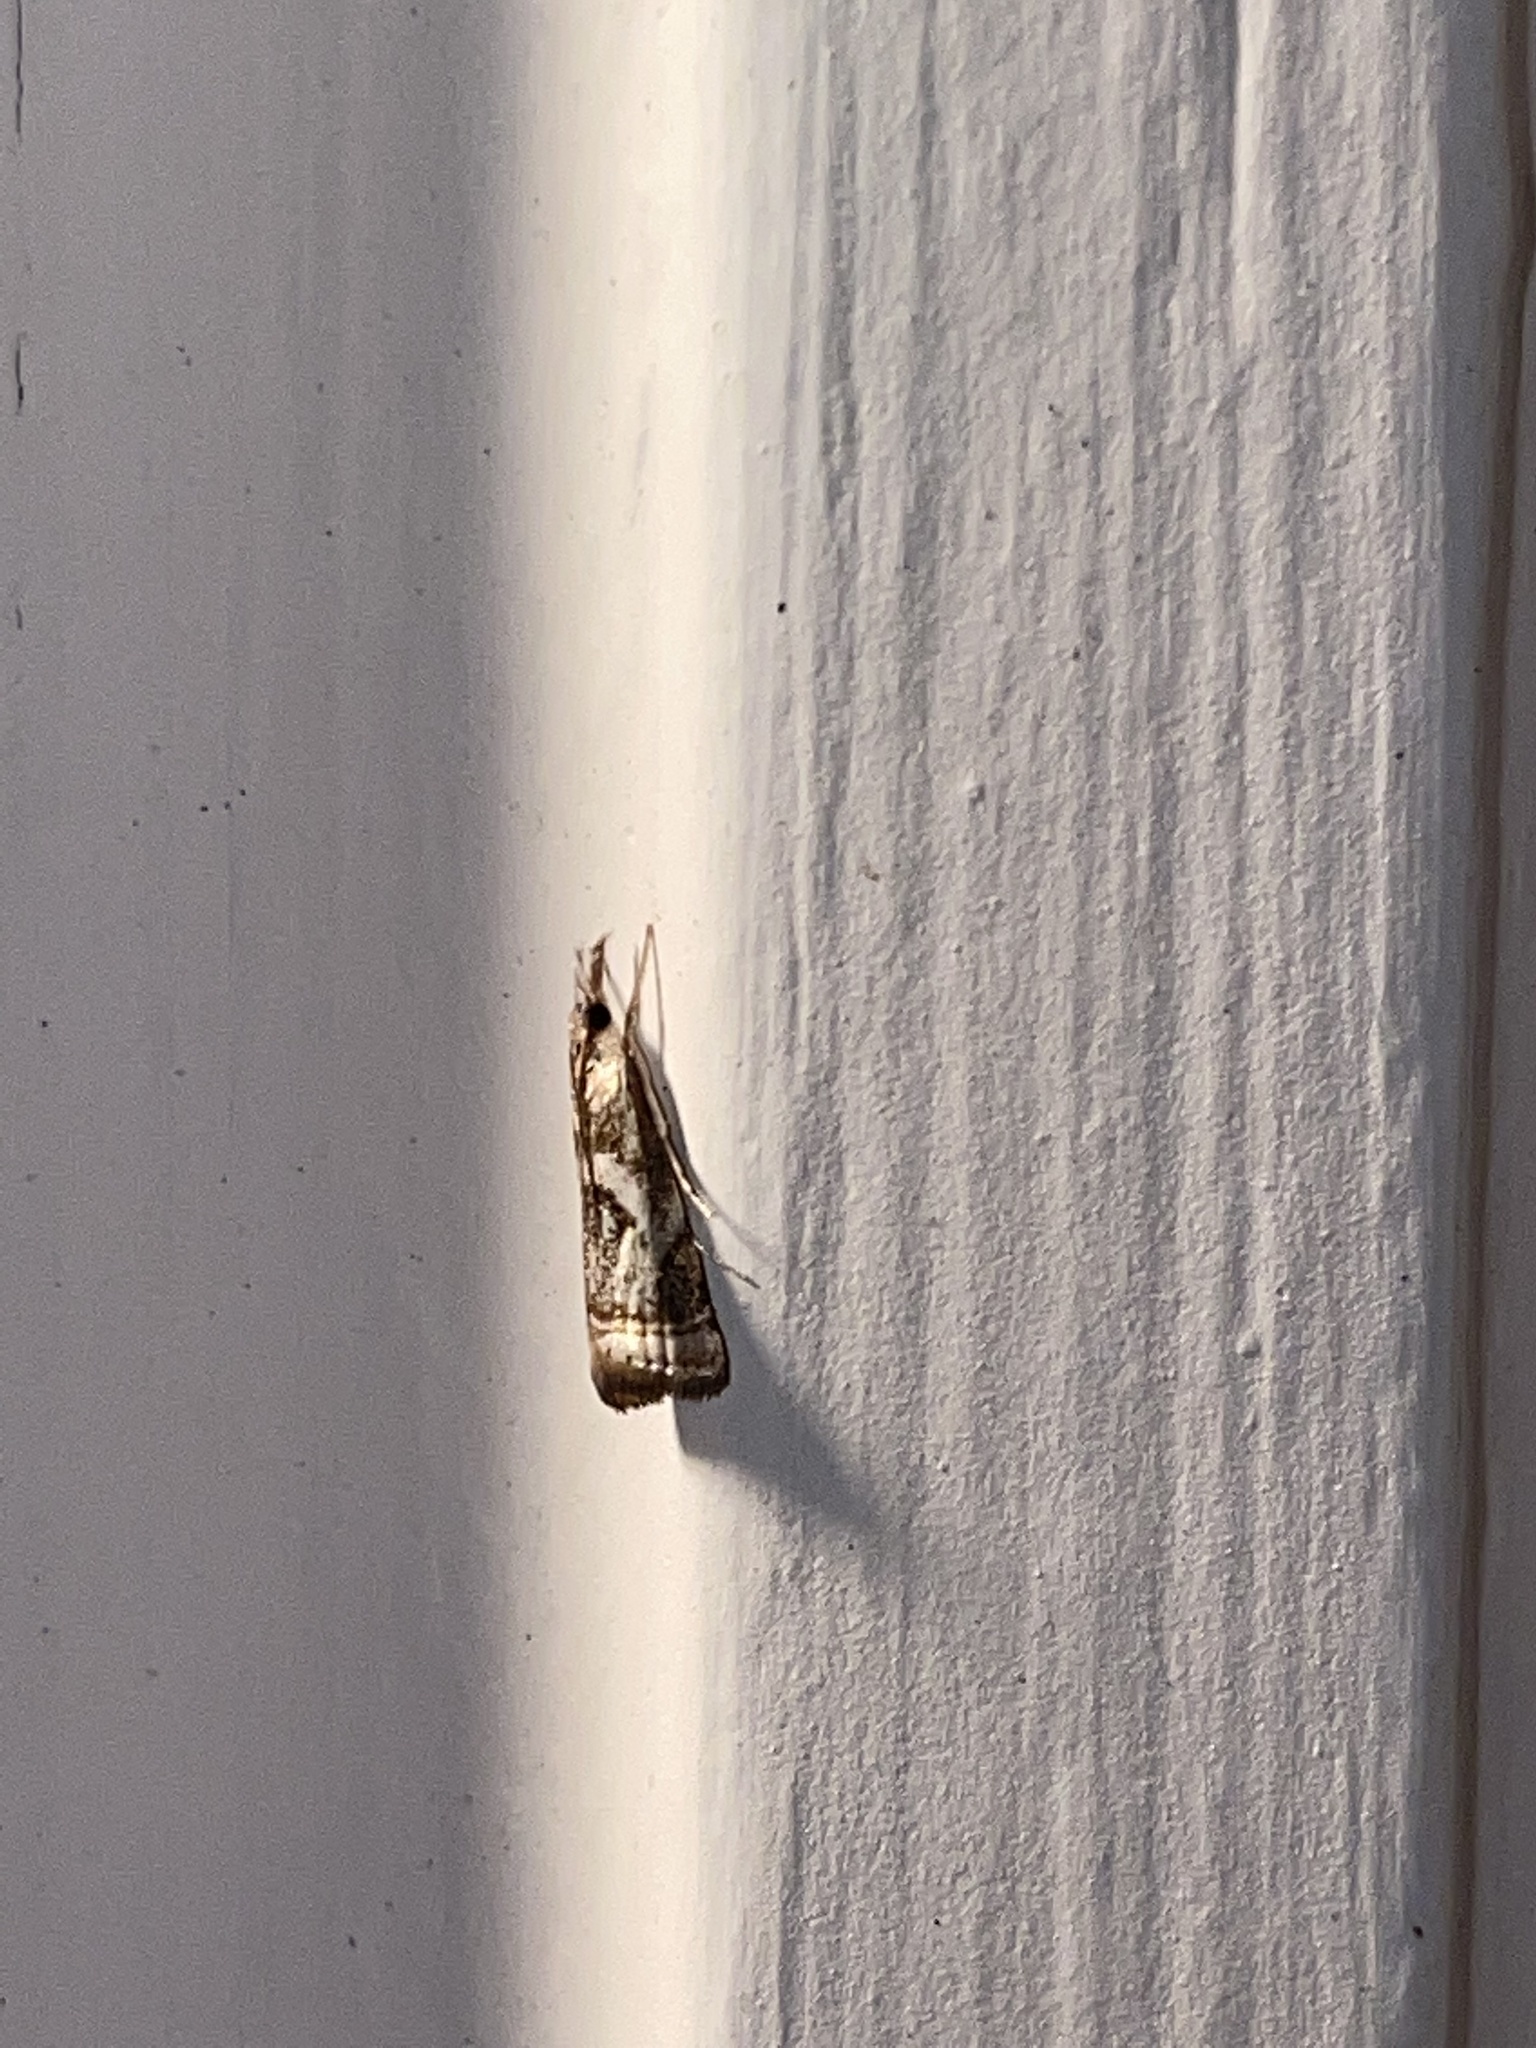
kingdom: Animalia
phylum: Arthropoda
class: Insecta
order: Lepidoptera
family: Crambidae
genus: Microcrambus
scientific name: Microcrambus elegans
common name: Elegant grass-veneer
